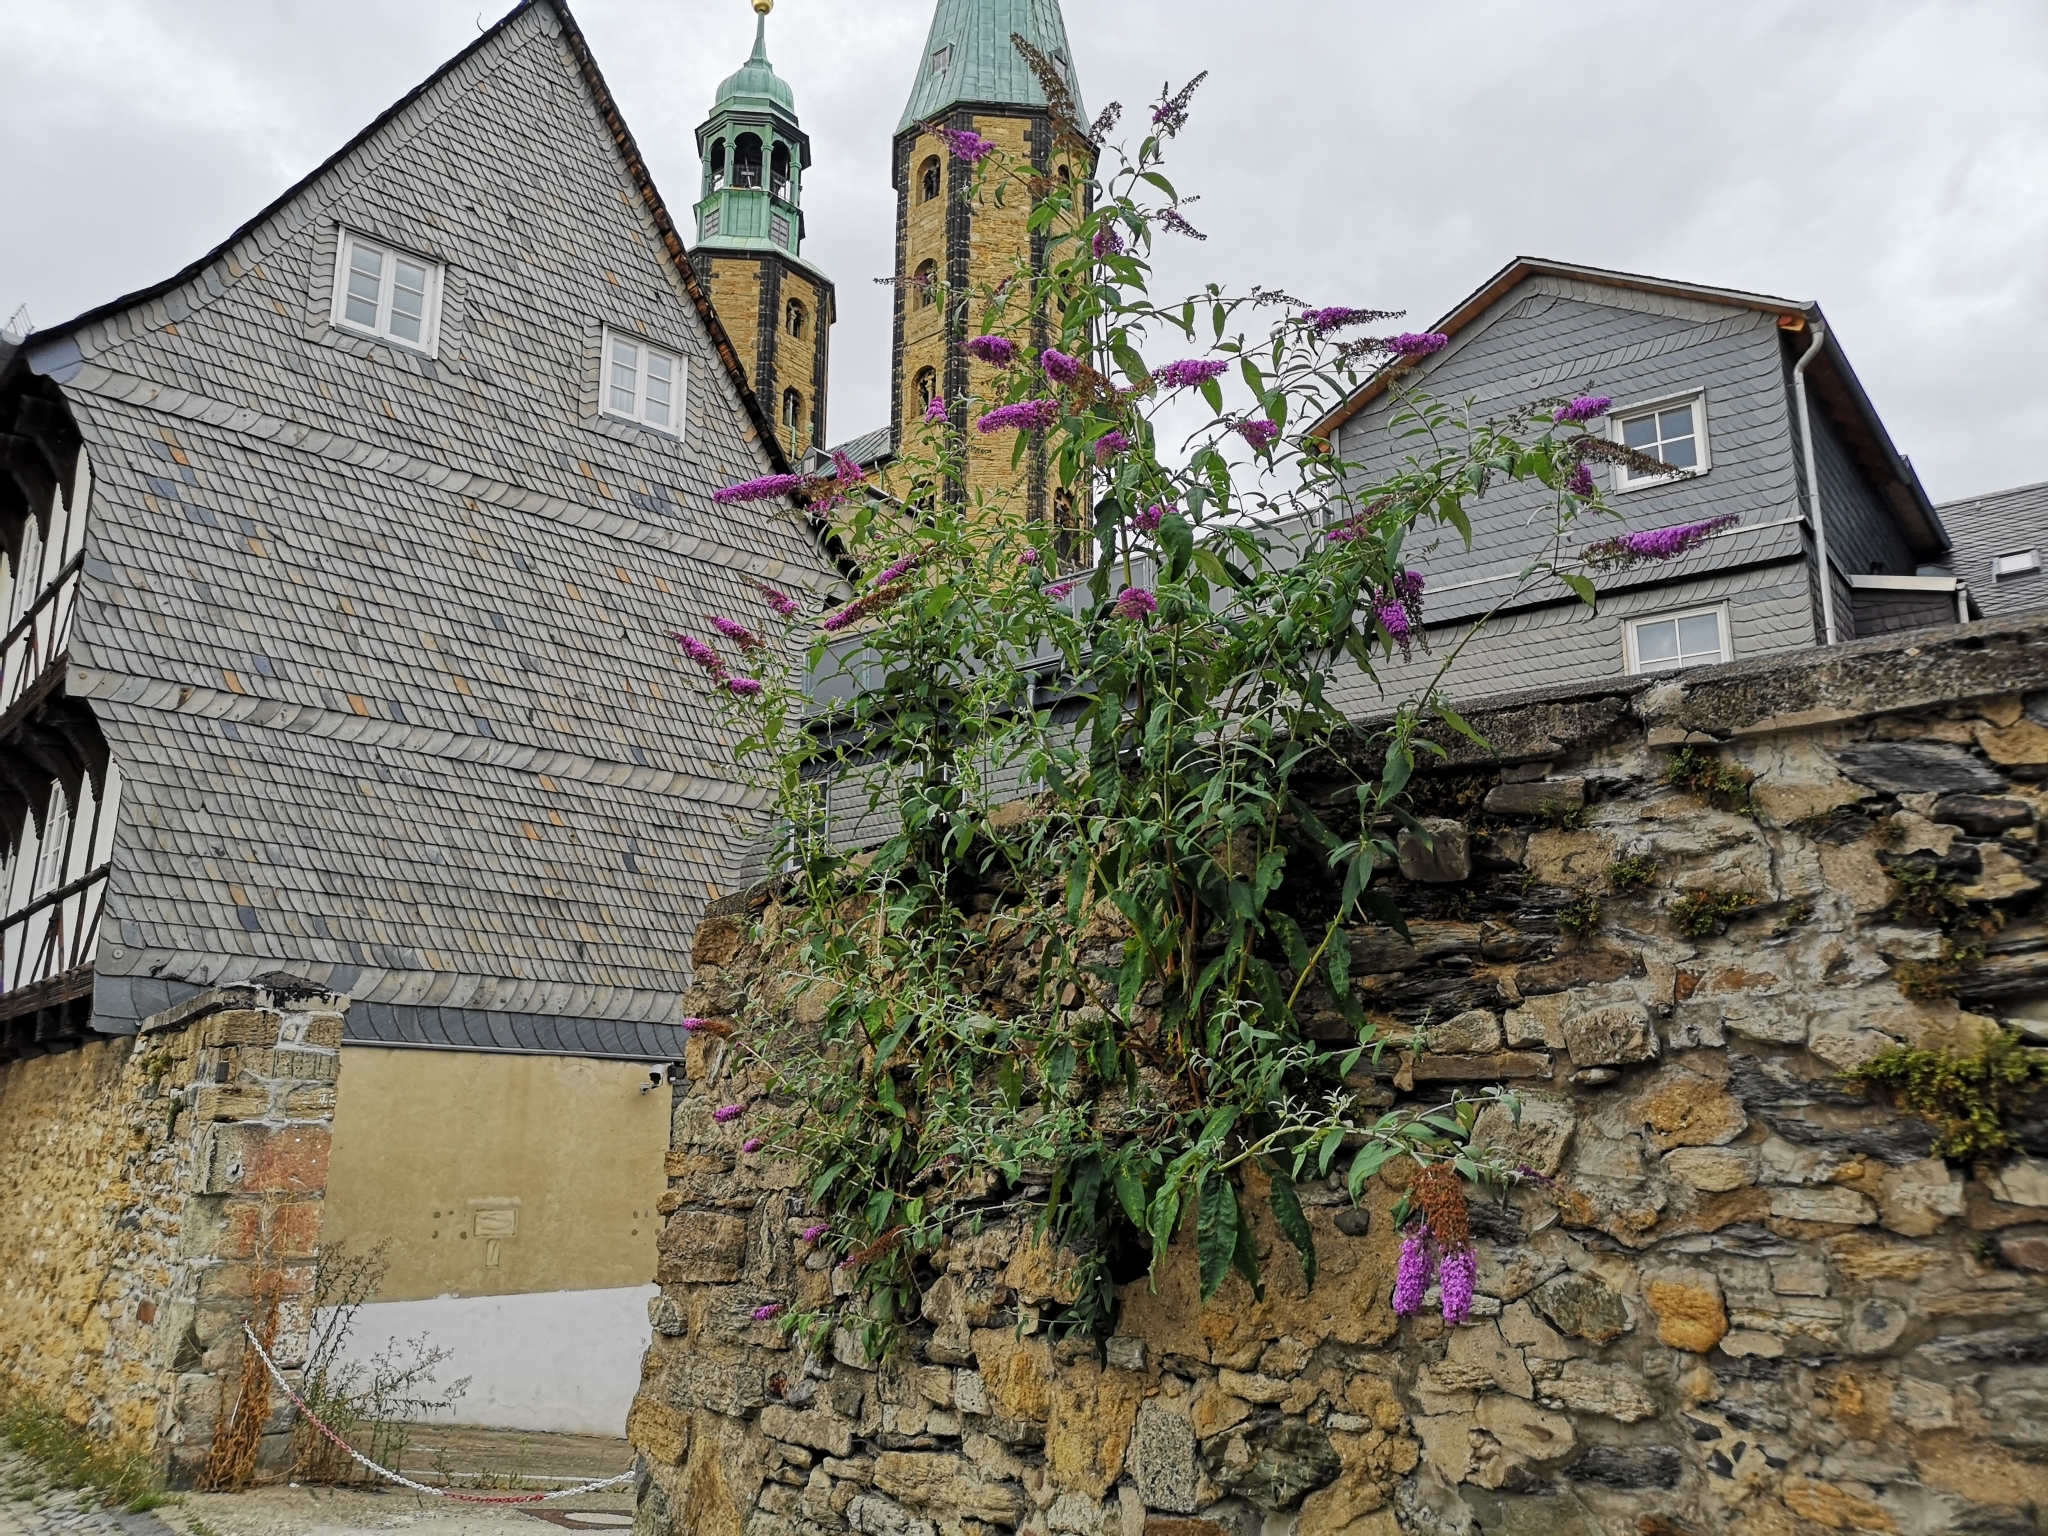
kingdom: Plantae
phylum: Tracheophyta
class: Magnoliopsida
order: Lamiales
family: Scrophulariaceae
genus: Buddleja
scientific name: Buddleja davidii
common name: Butterfly-bush
